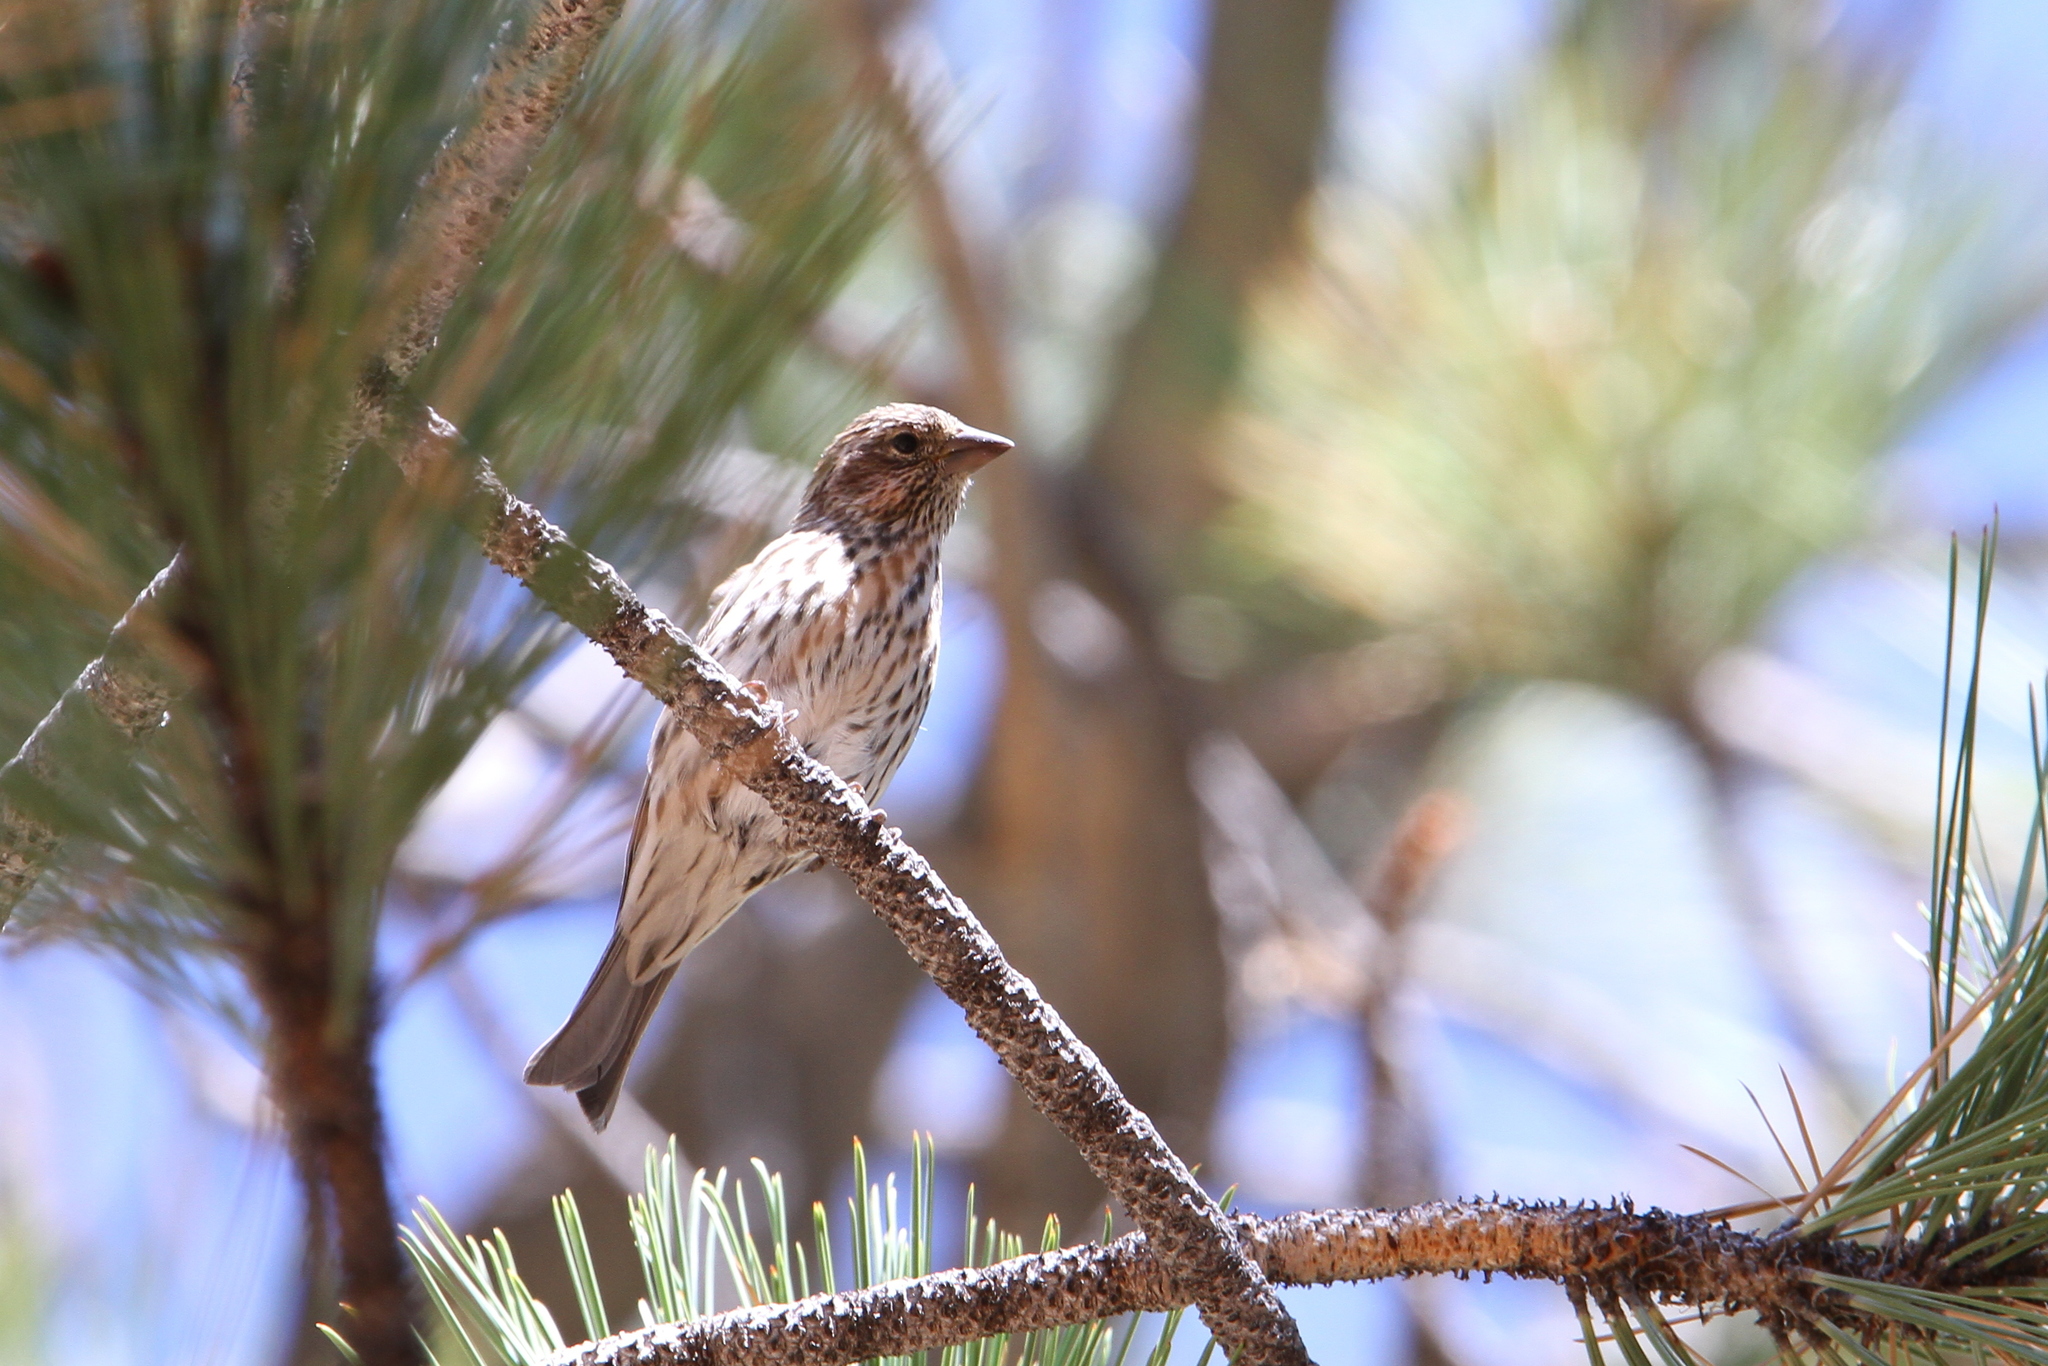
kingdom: Animalia
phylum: Chordata
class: Aves
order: Passeriformes
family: Fringillidae
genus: Haemorhous
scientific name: Haemorhous cassinii
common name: Cassin's finch
